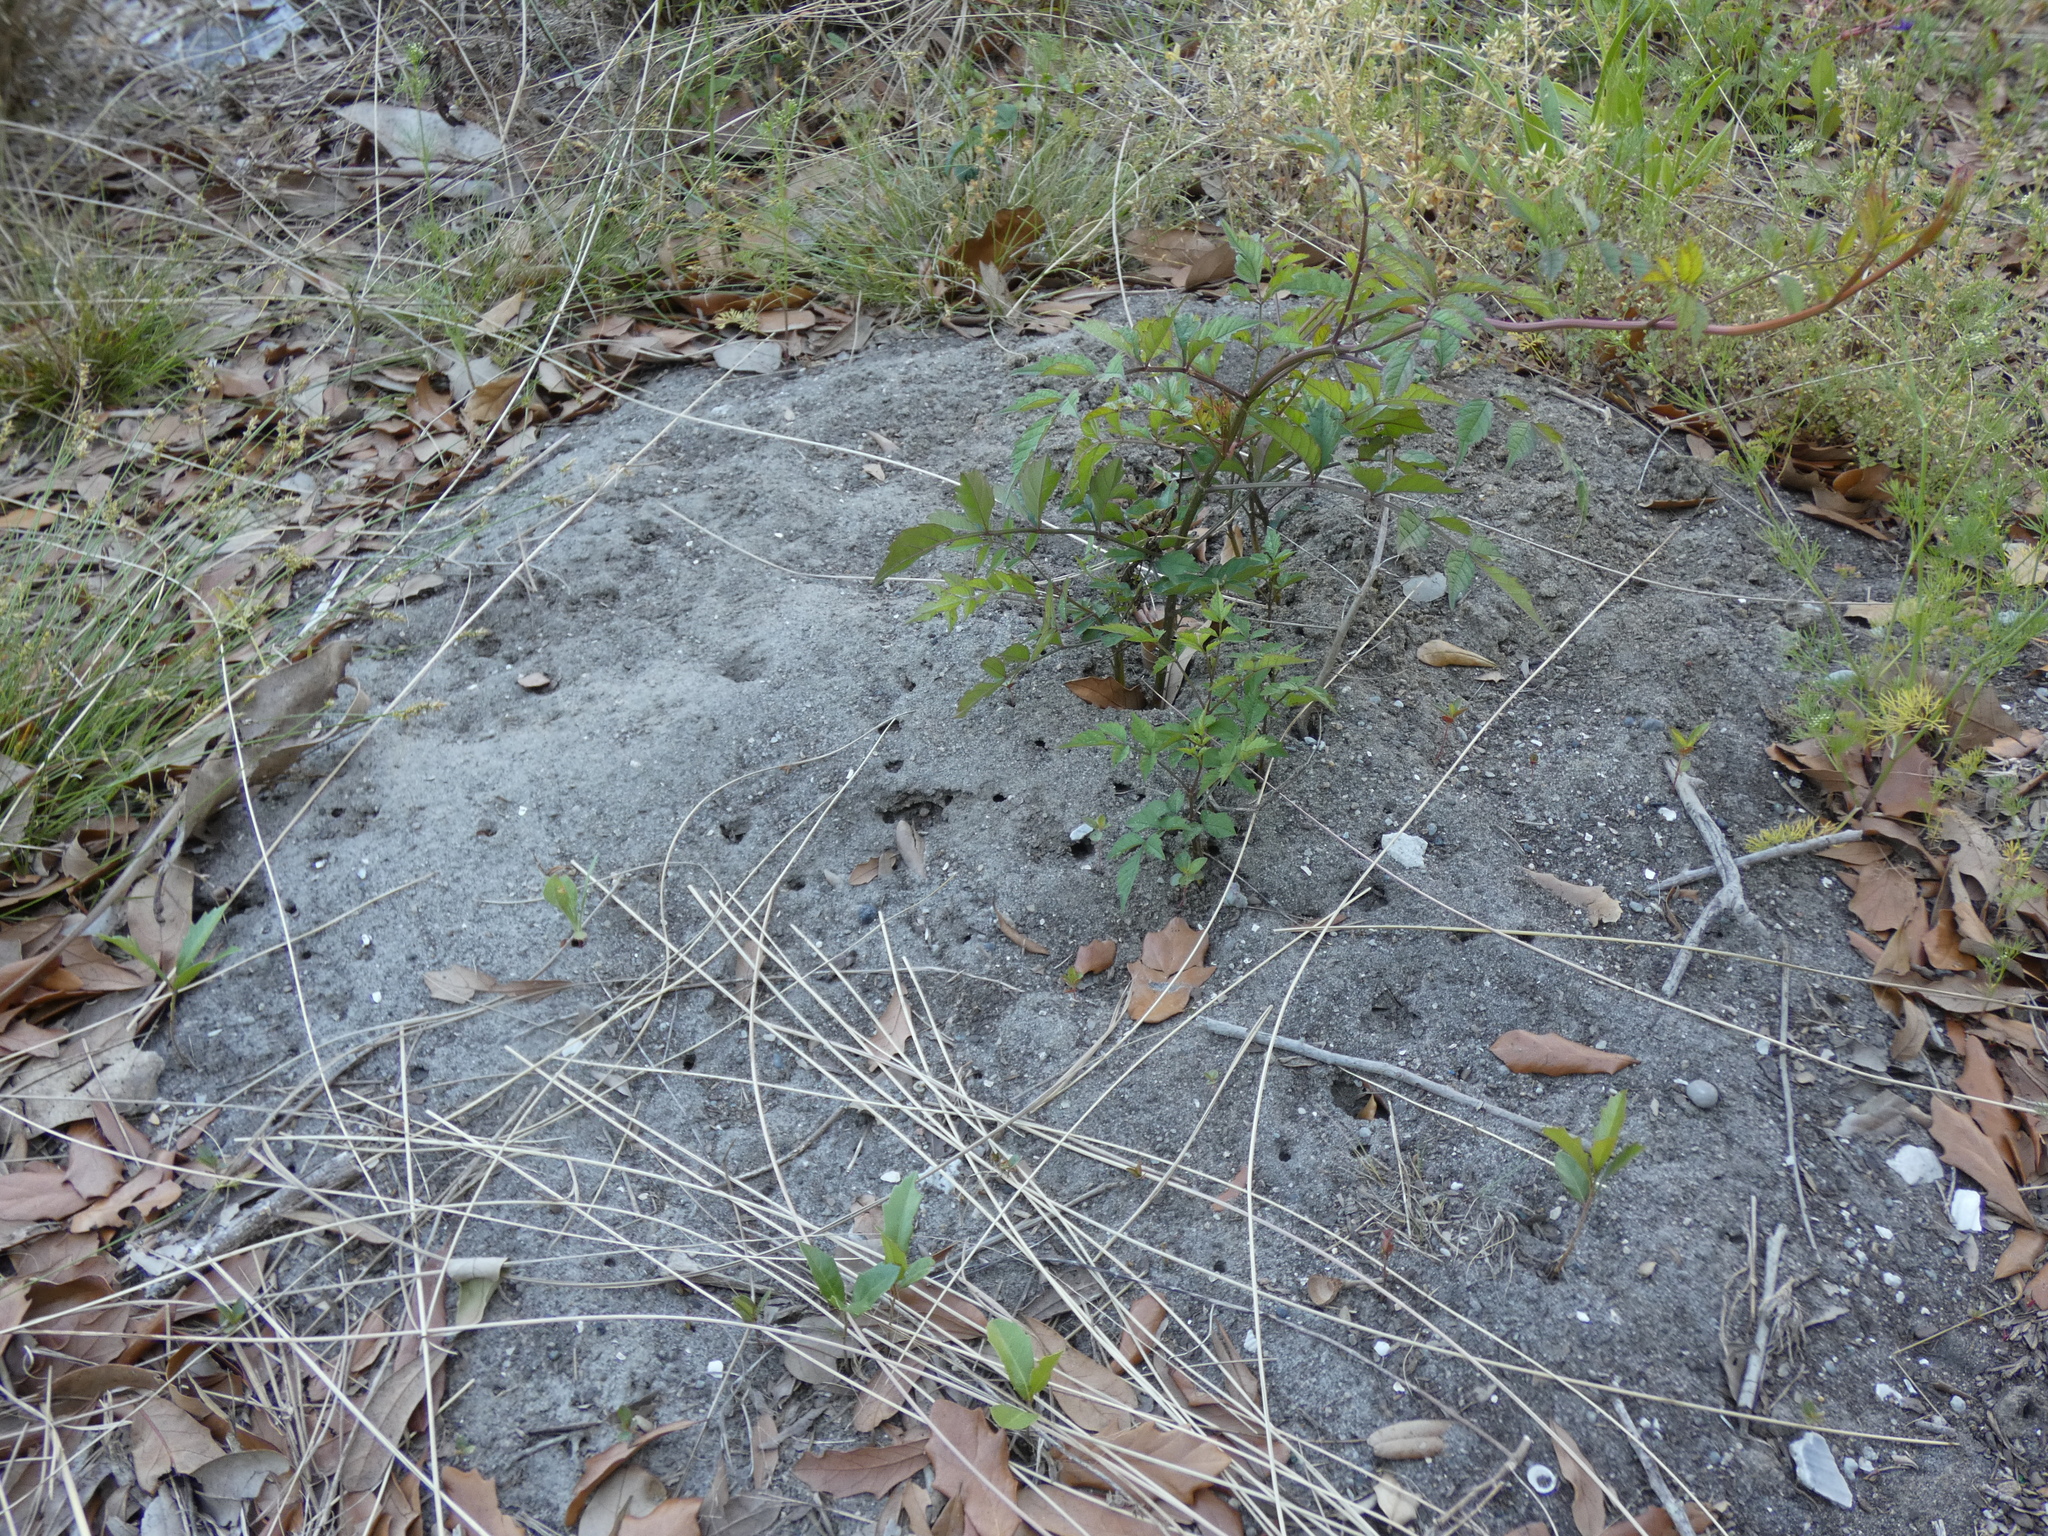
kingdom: Animalia
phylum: Arthropoda
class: Insecta
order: Hymenoptera
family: Formicidae
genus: Solenopsis
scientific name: Solenopsis invicta
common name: Red imported fire ant
